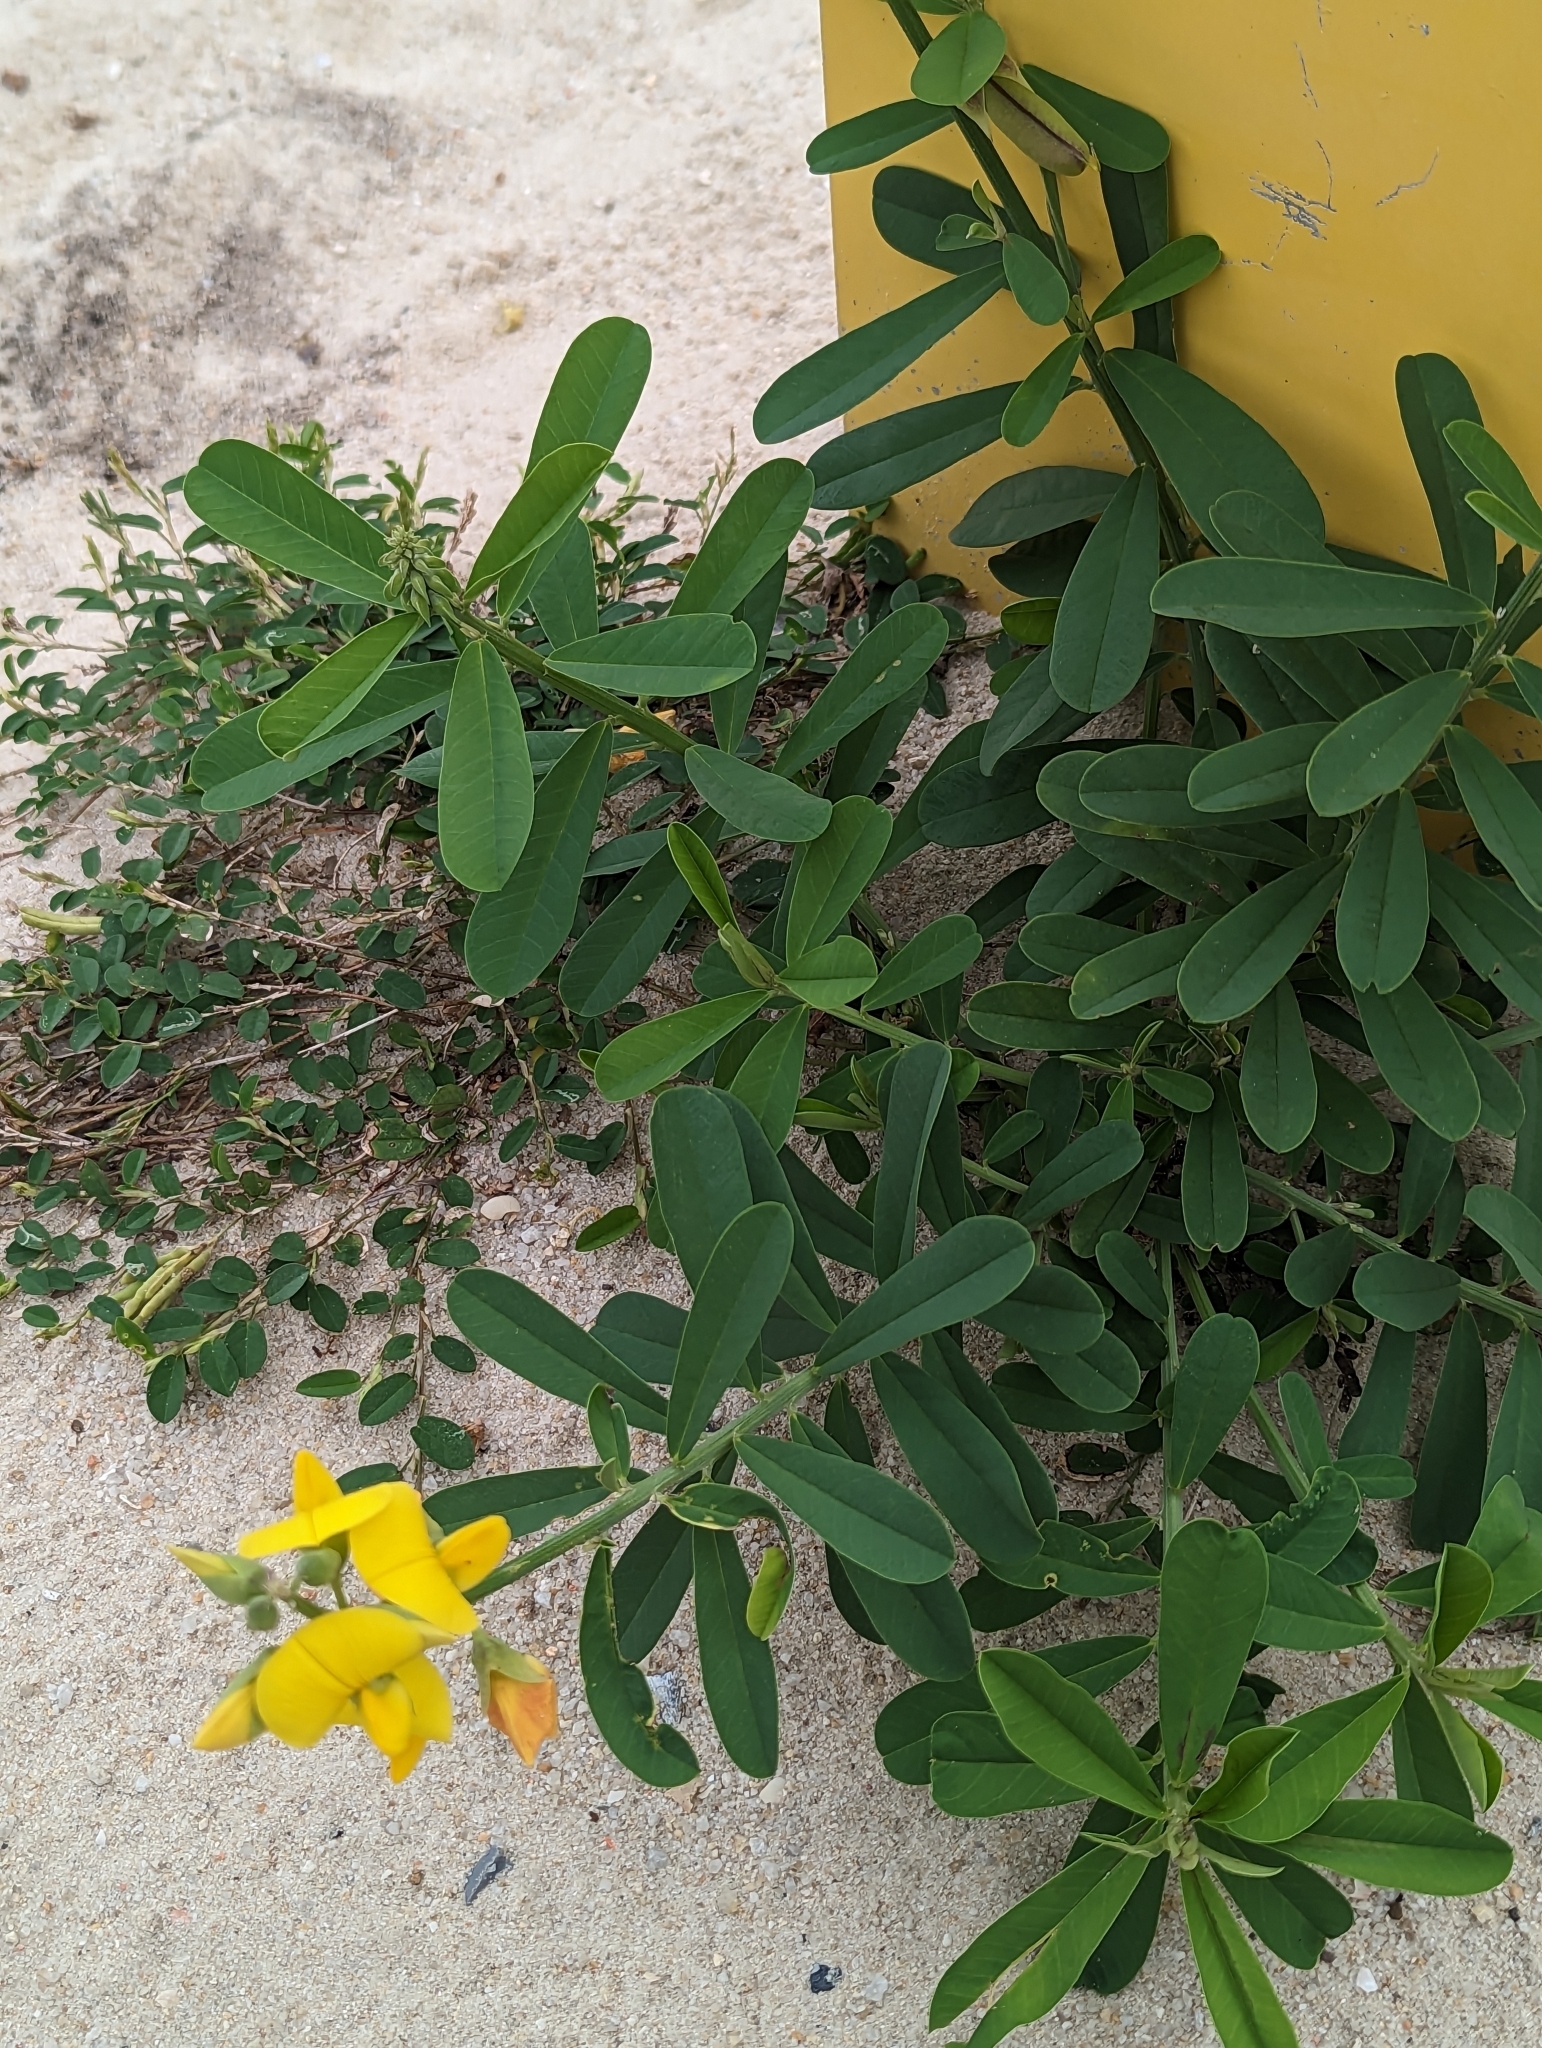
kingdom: Plantae
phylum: Tracheophyta
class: Magnoliopsida
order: Fabales
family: Fabaceae
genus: Crotalaria
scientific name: Crotalaria retusa
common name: Rattleweed
